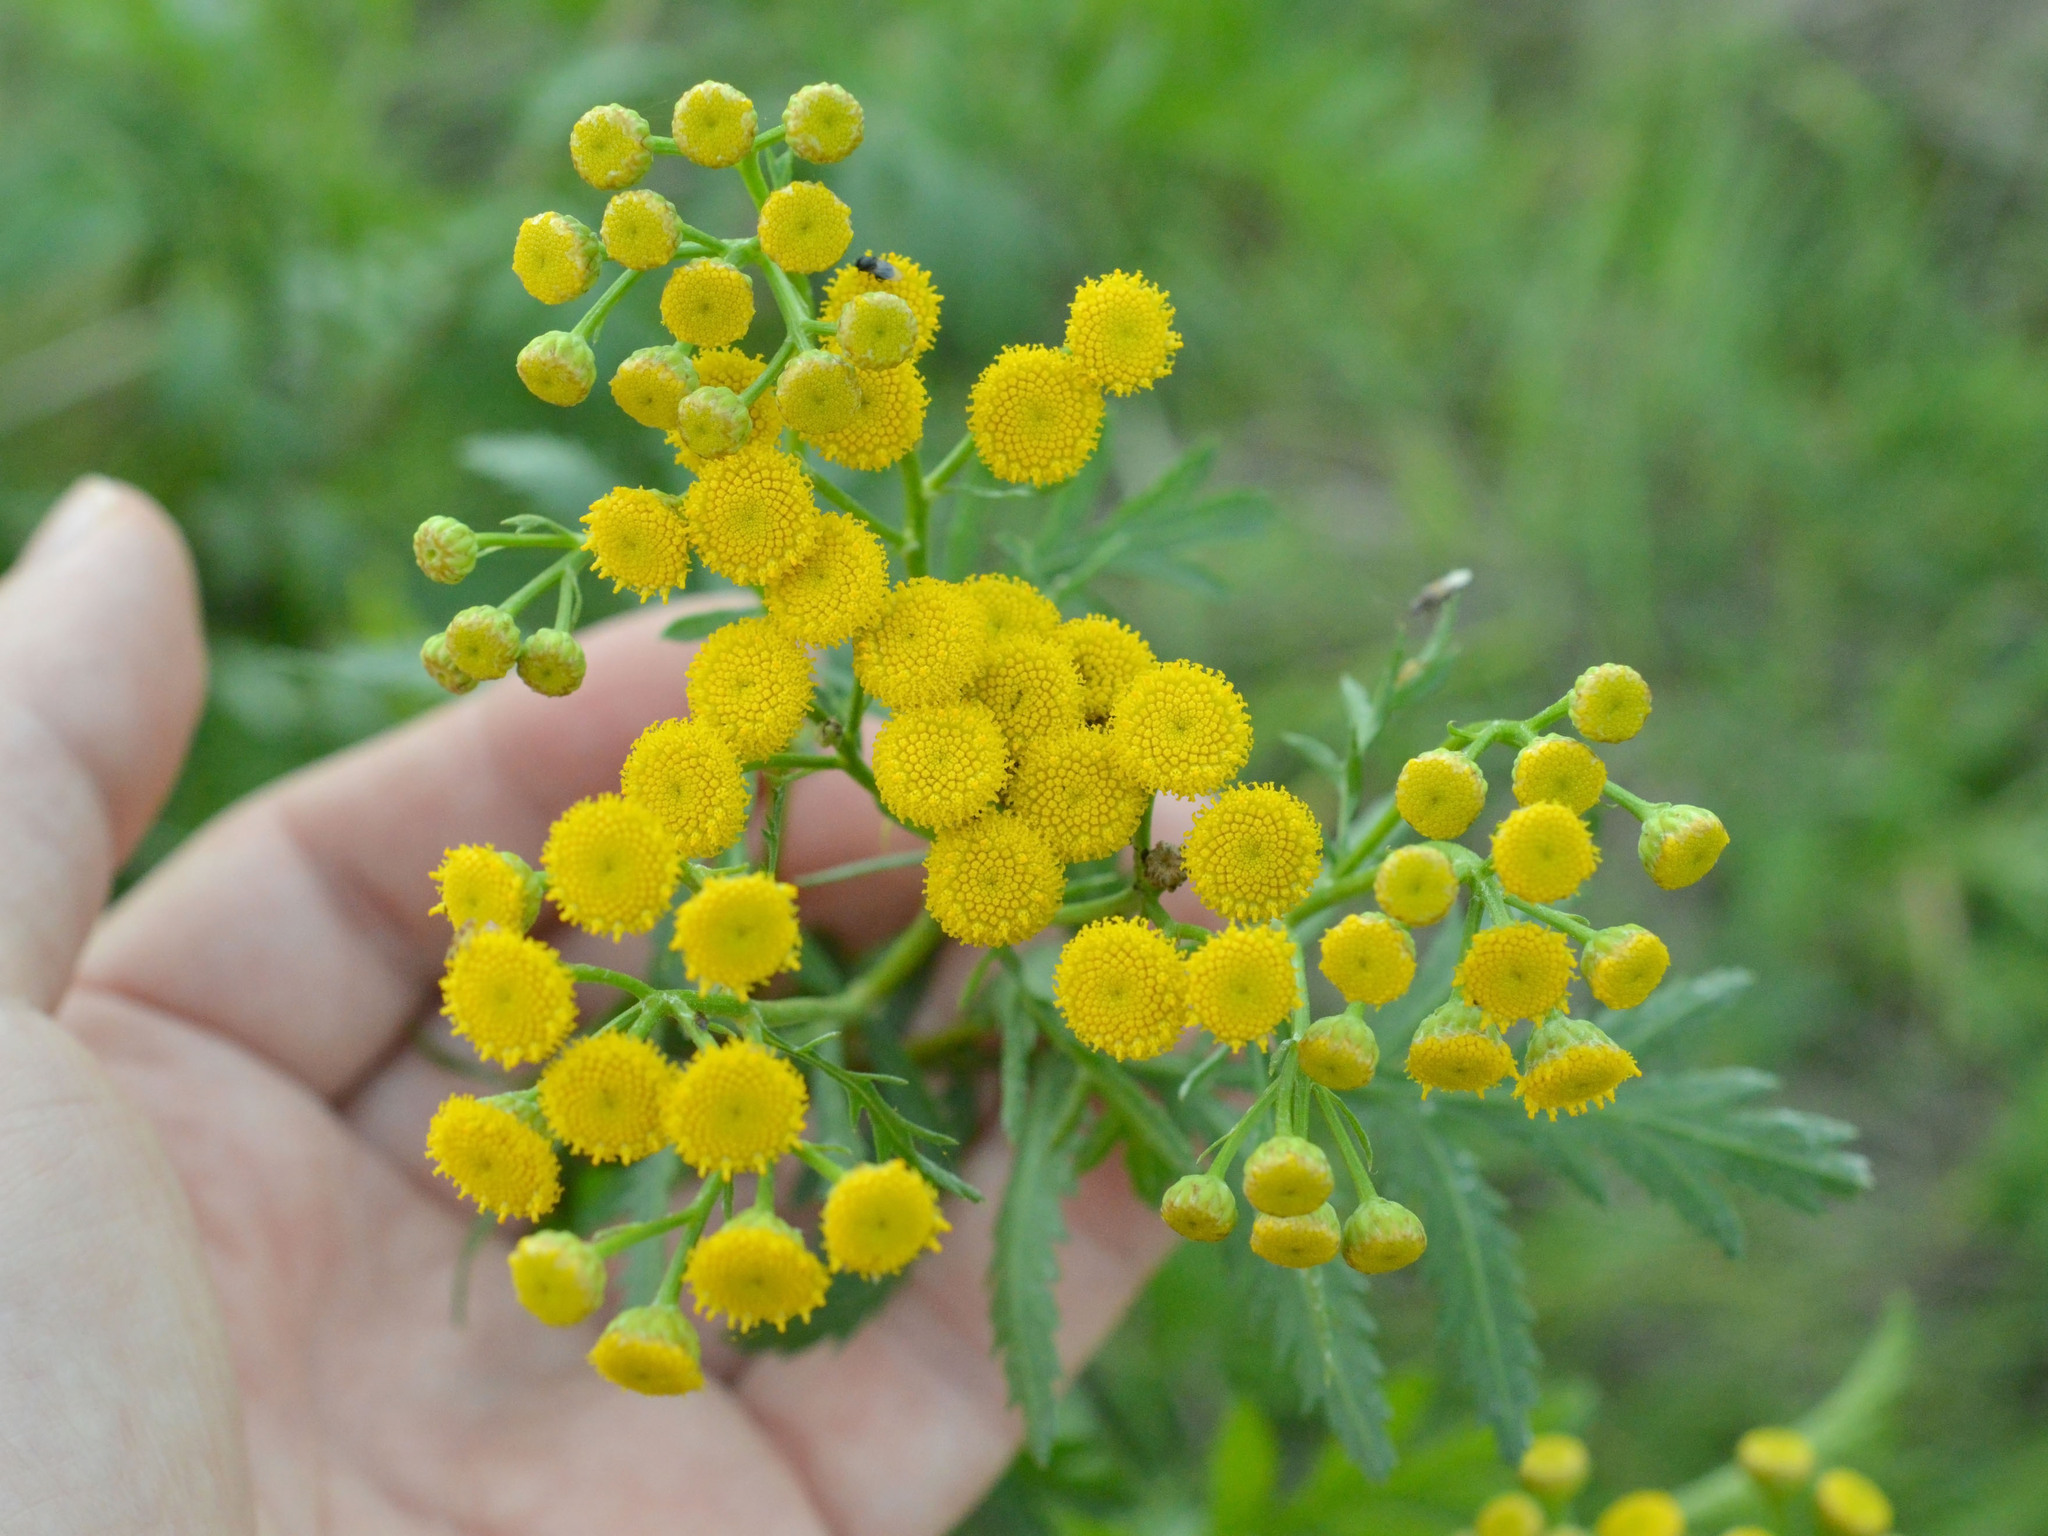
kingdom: Plantae
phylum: Tracheophyta
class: Magnoliopsida
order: Asterales
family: Asteraceae
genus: Tanacetum
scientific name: Tanacetum vulgare
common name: Common tansy
